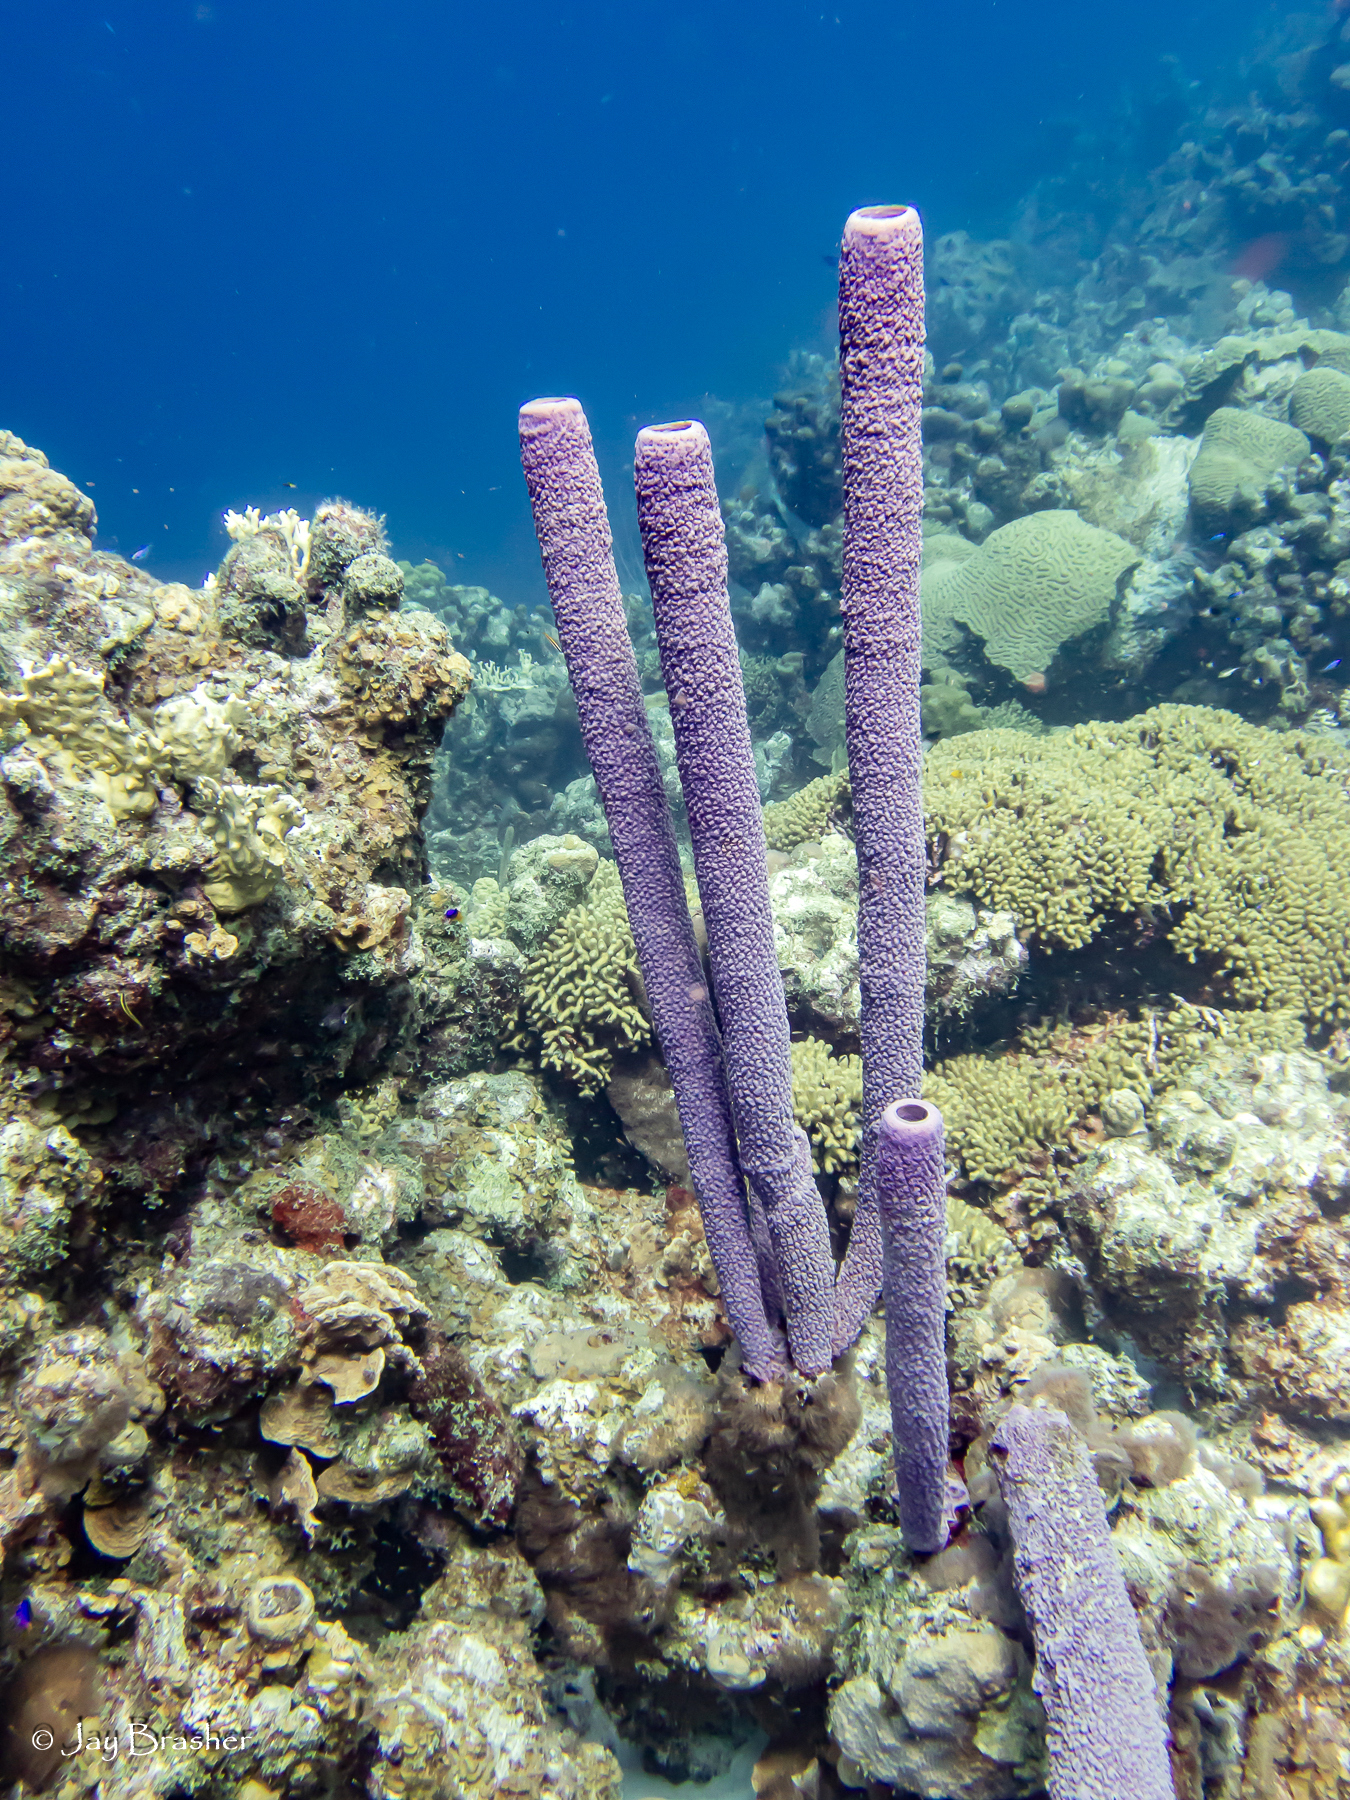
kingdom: Animalia
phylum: Porifera
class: Demospongiae
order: Verongiida
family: Aplysinidae
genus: Aplysina
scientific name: Aplysina archeri
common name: Stove-pipe sponge
